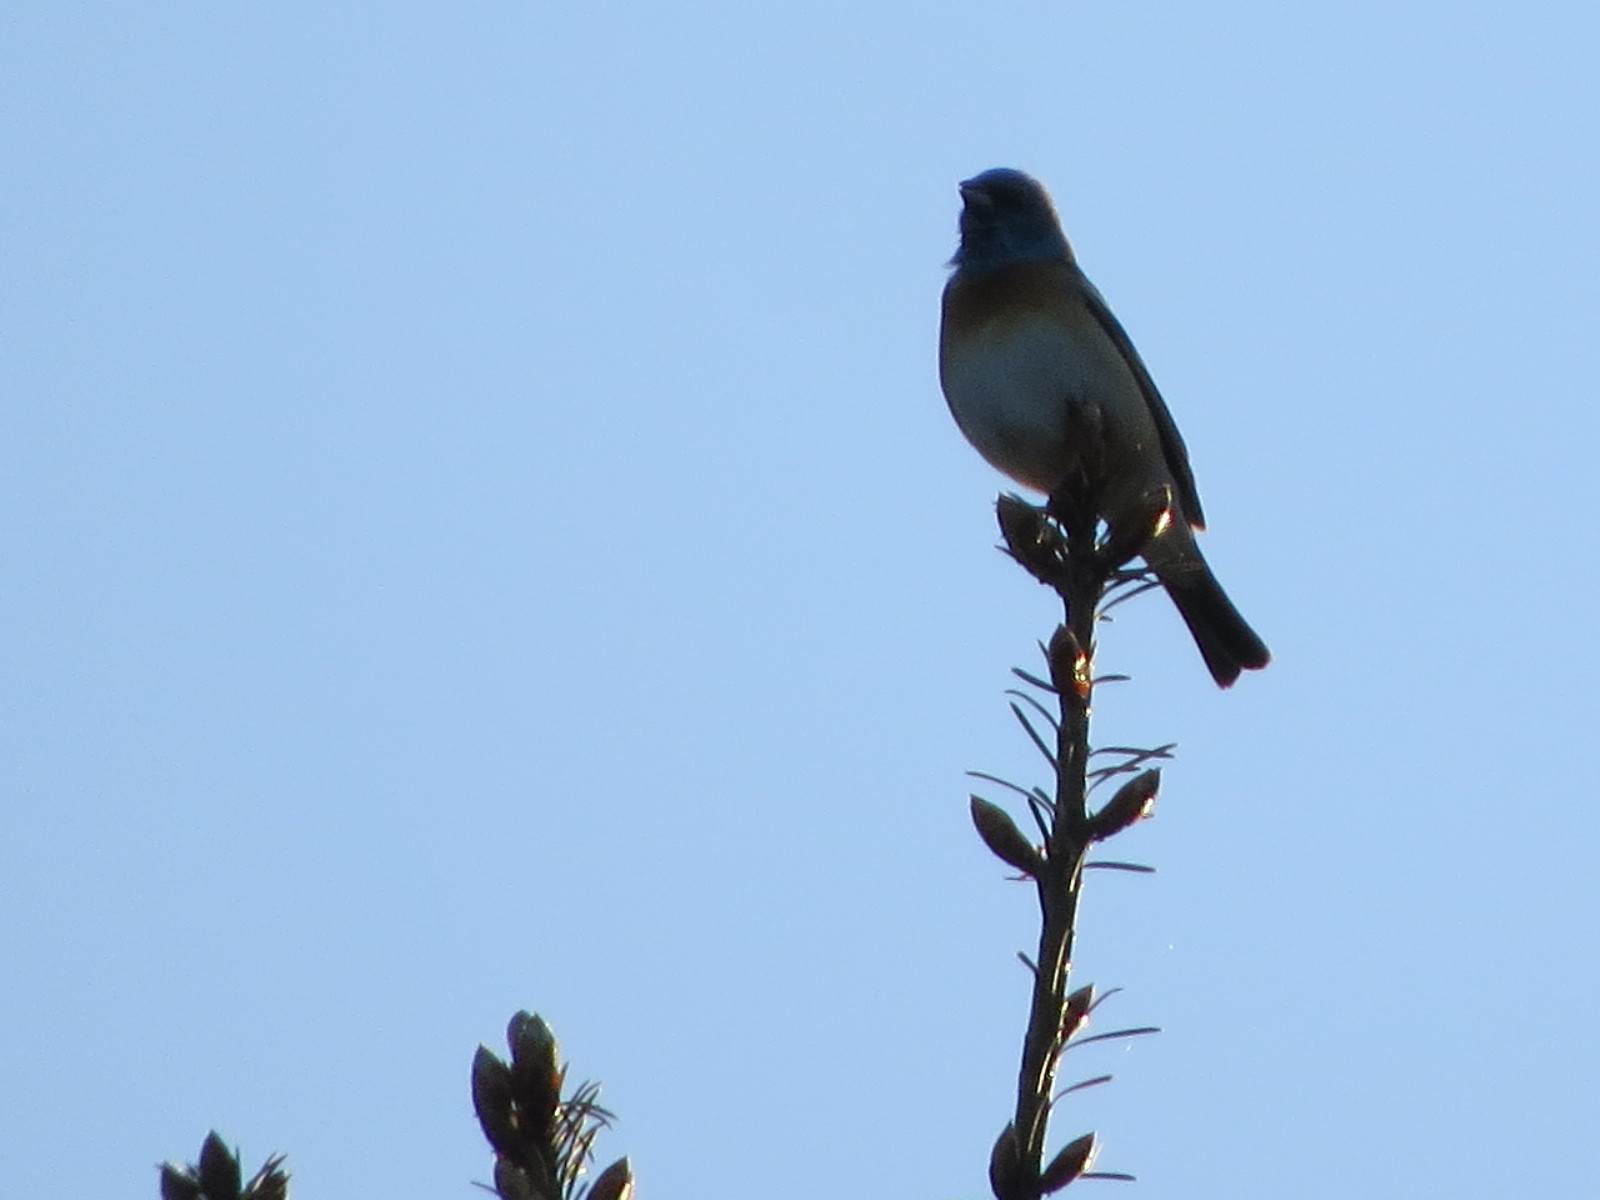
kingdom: Animalia
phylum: Chordata
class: Aves
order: Passeriformes
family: Cardinalidae
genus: Passerina
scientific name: Passerina amoena
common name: Lazuli bunting
